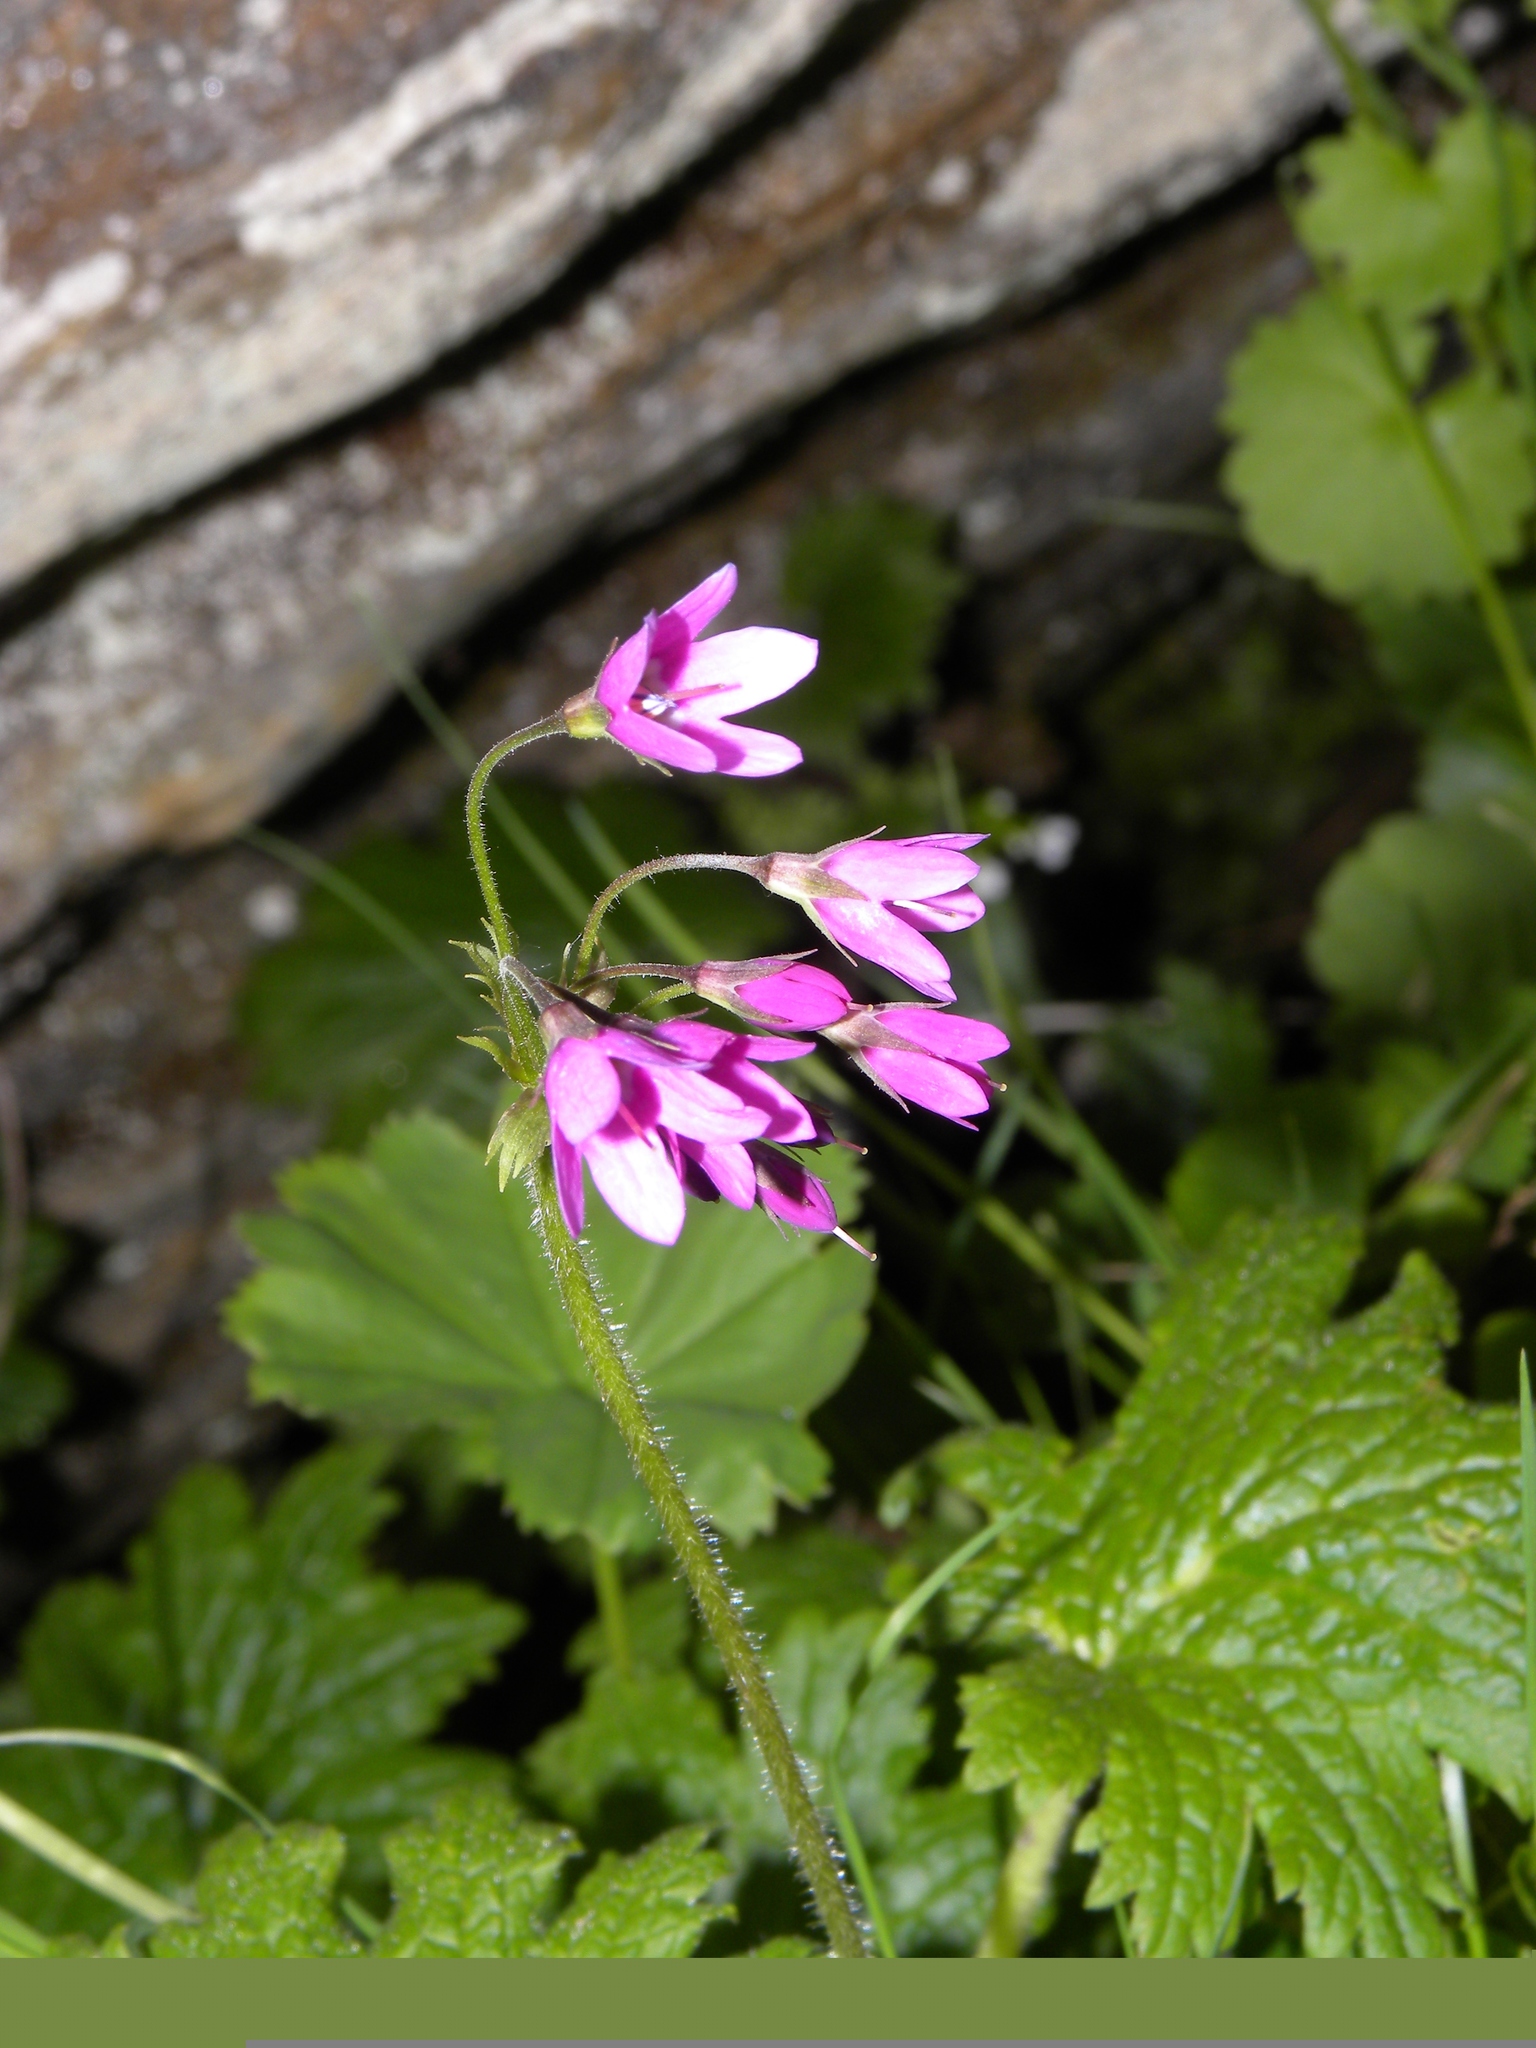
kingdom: Plantae
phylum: Tracheophyta
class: Magnoliopsida
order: Ericales
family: Primulaceae
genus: Primula
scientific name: Primula matthioli
